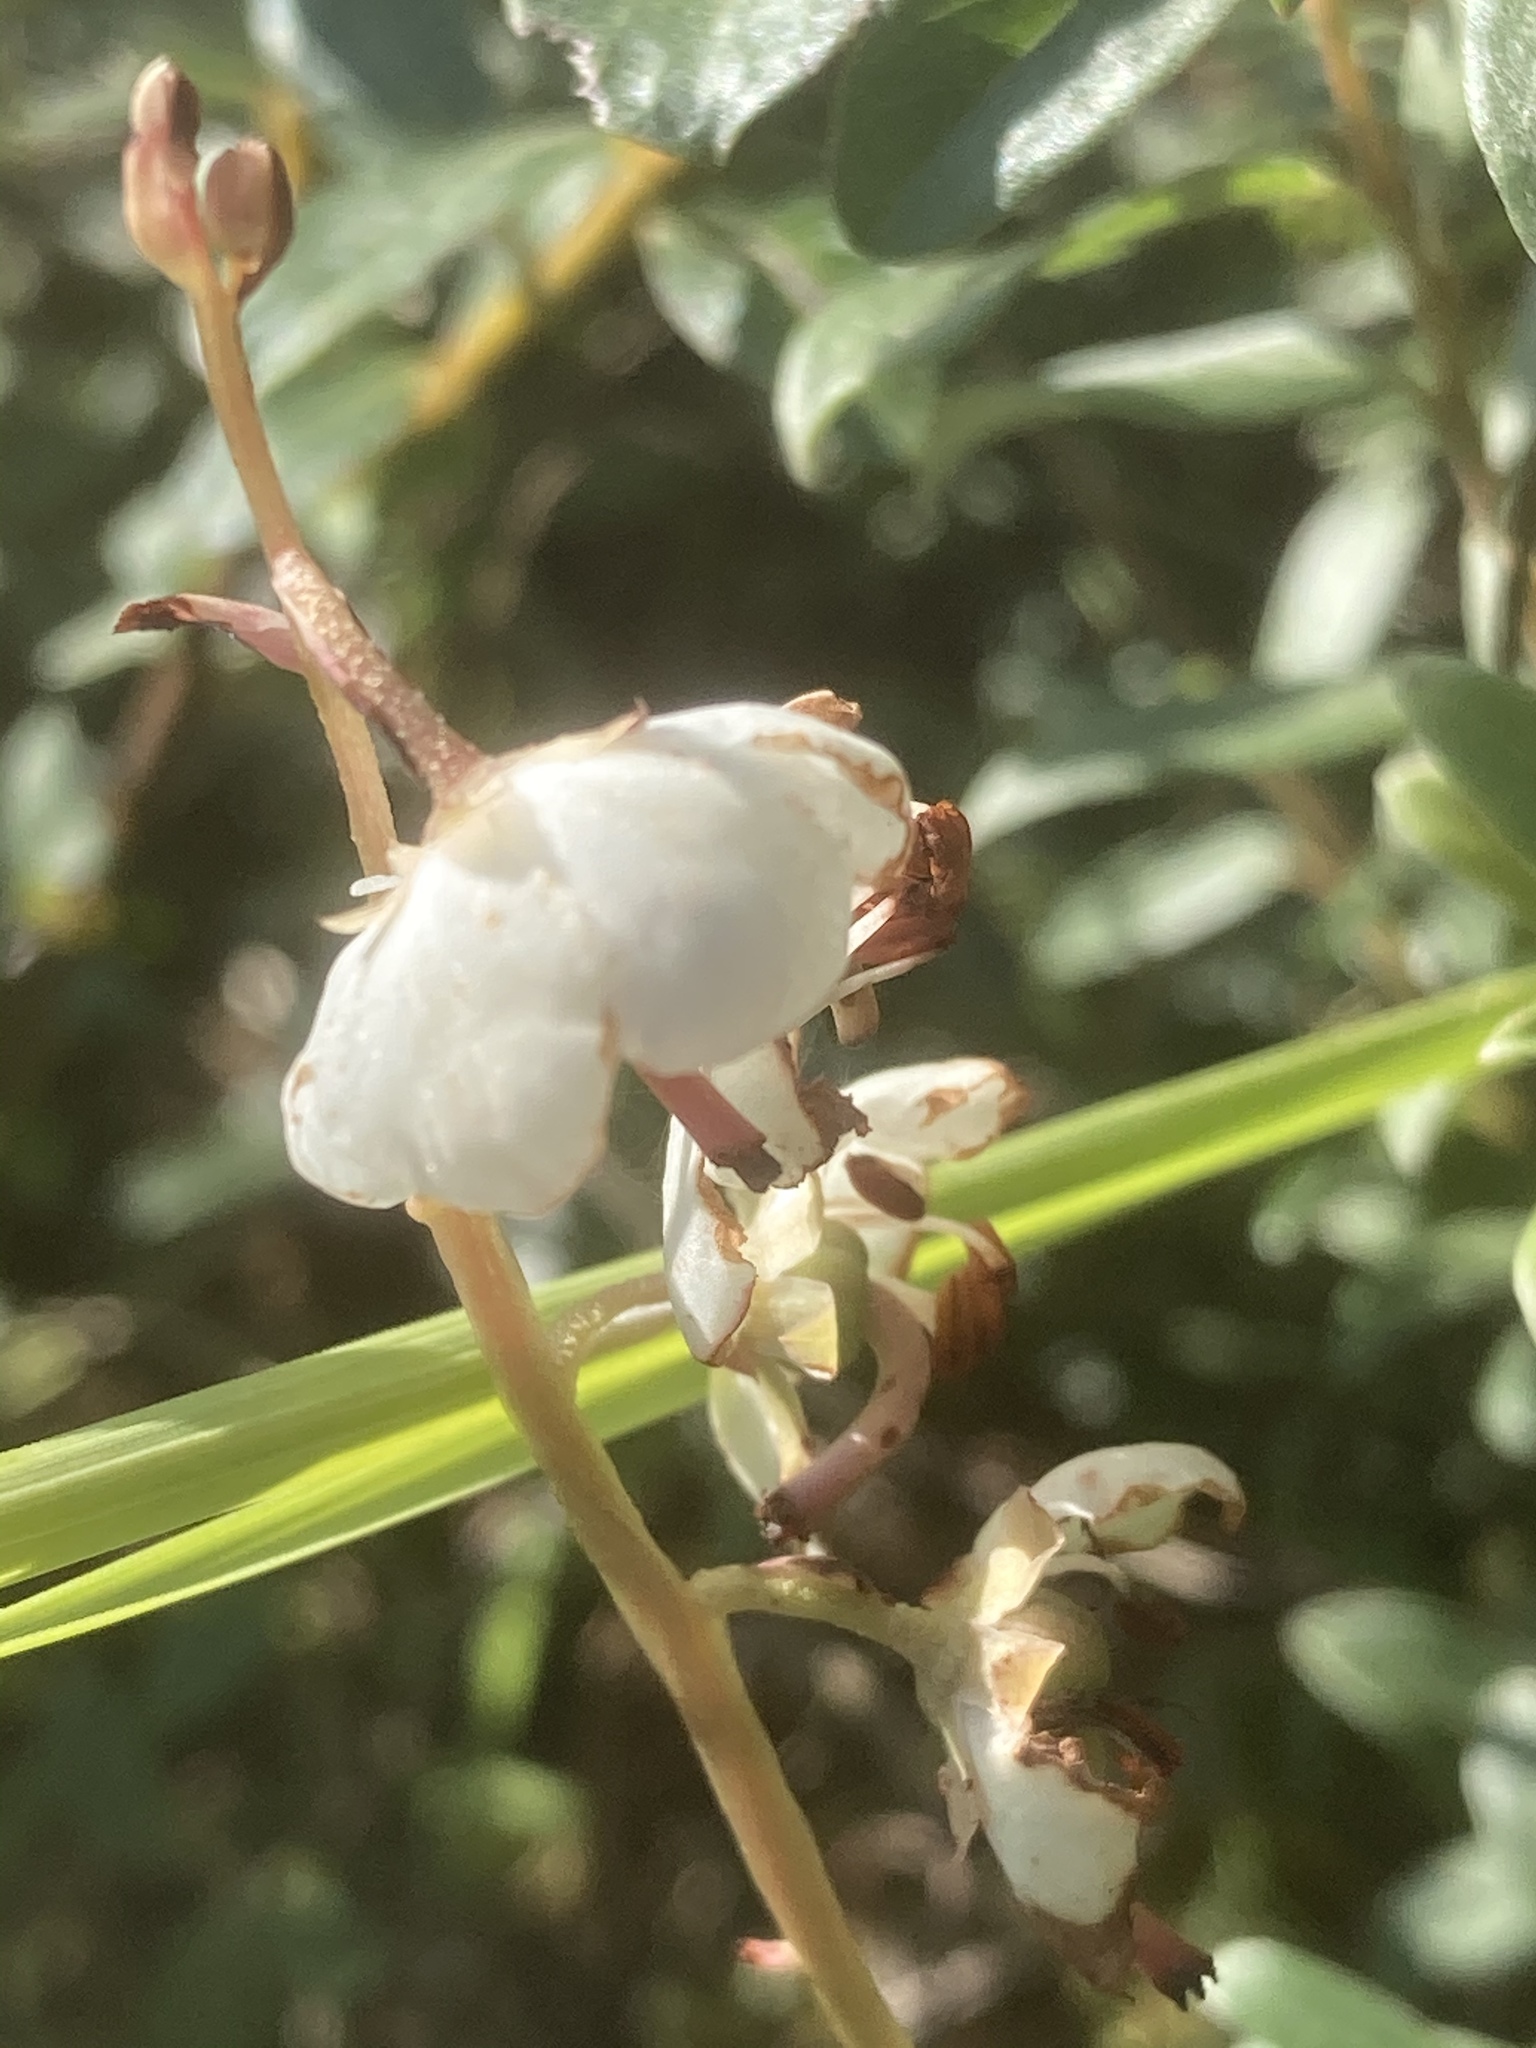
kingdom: Plantae
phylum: Tracheophyta
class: Magnoliopsida
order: Ericales
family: Ericaceae
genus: Pyrola
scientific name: Pyrola rotundifolia
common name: Round-leaved wintergreen
